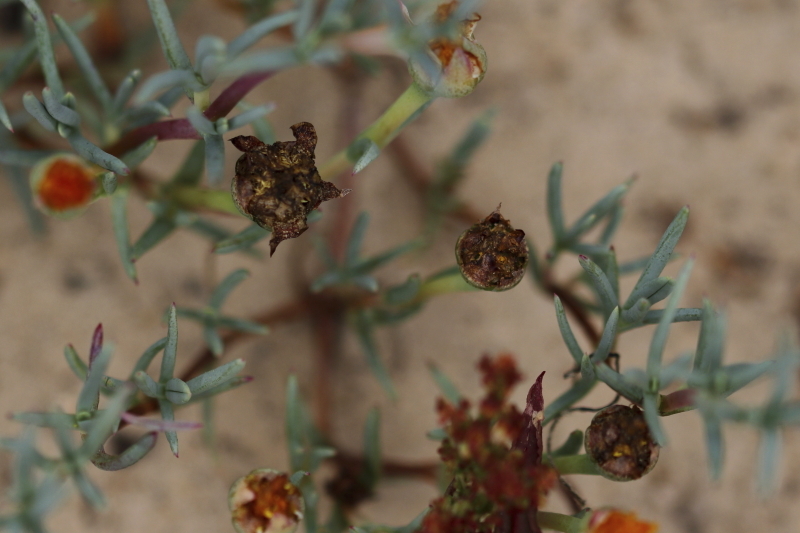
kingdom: Plantae
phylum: Tracheophyta
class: Magnoliopsida
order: Caryophyllales
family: Aizoaceae
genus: Lampranthus
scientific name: Lampranthus explanatus
